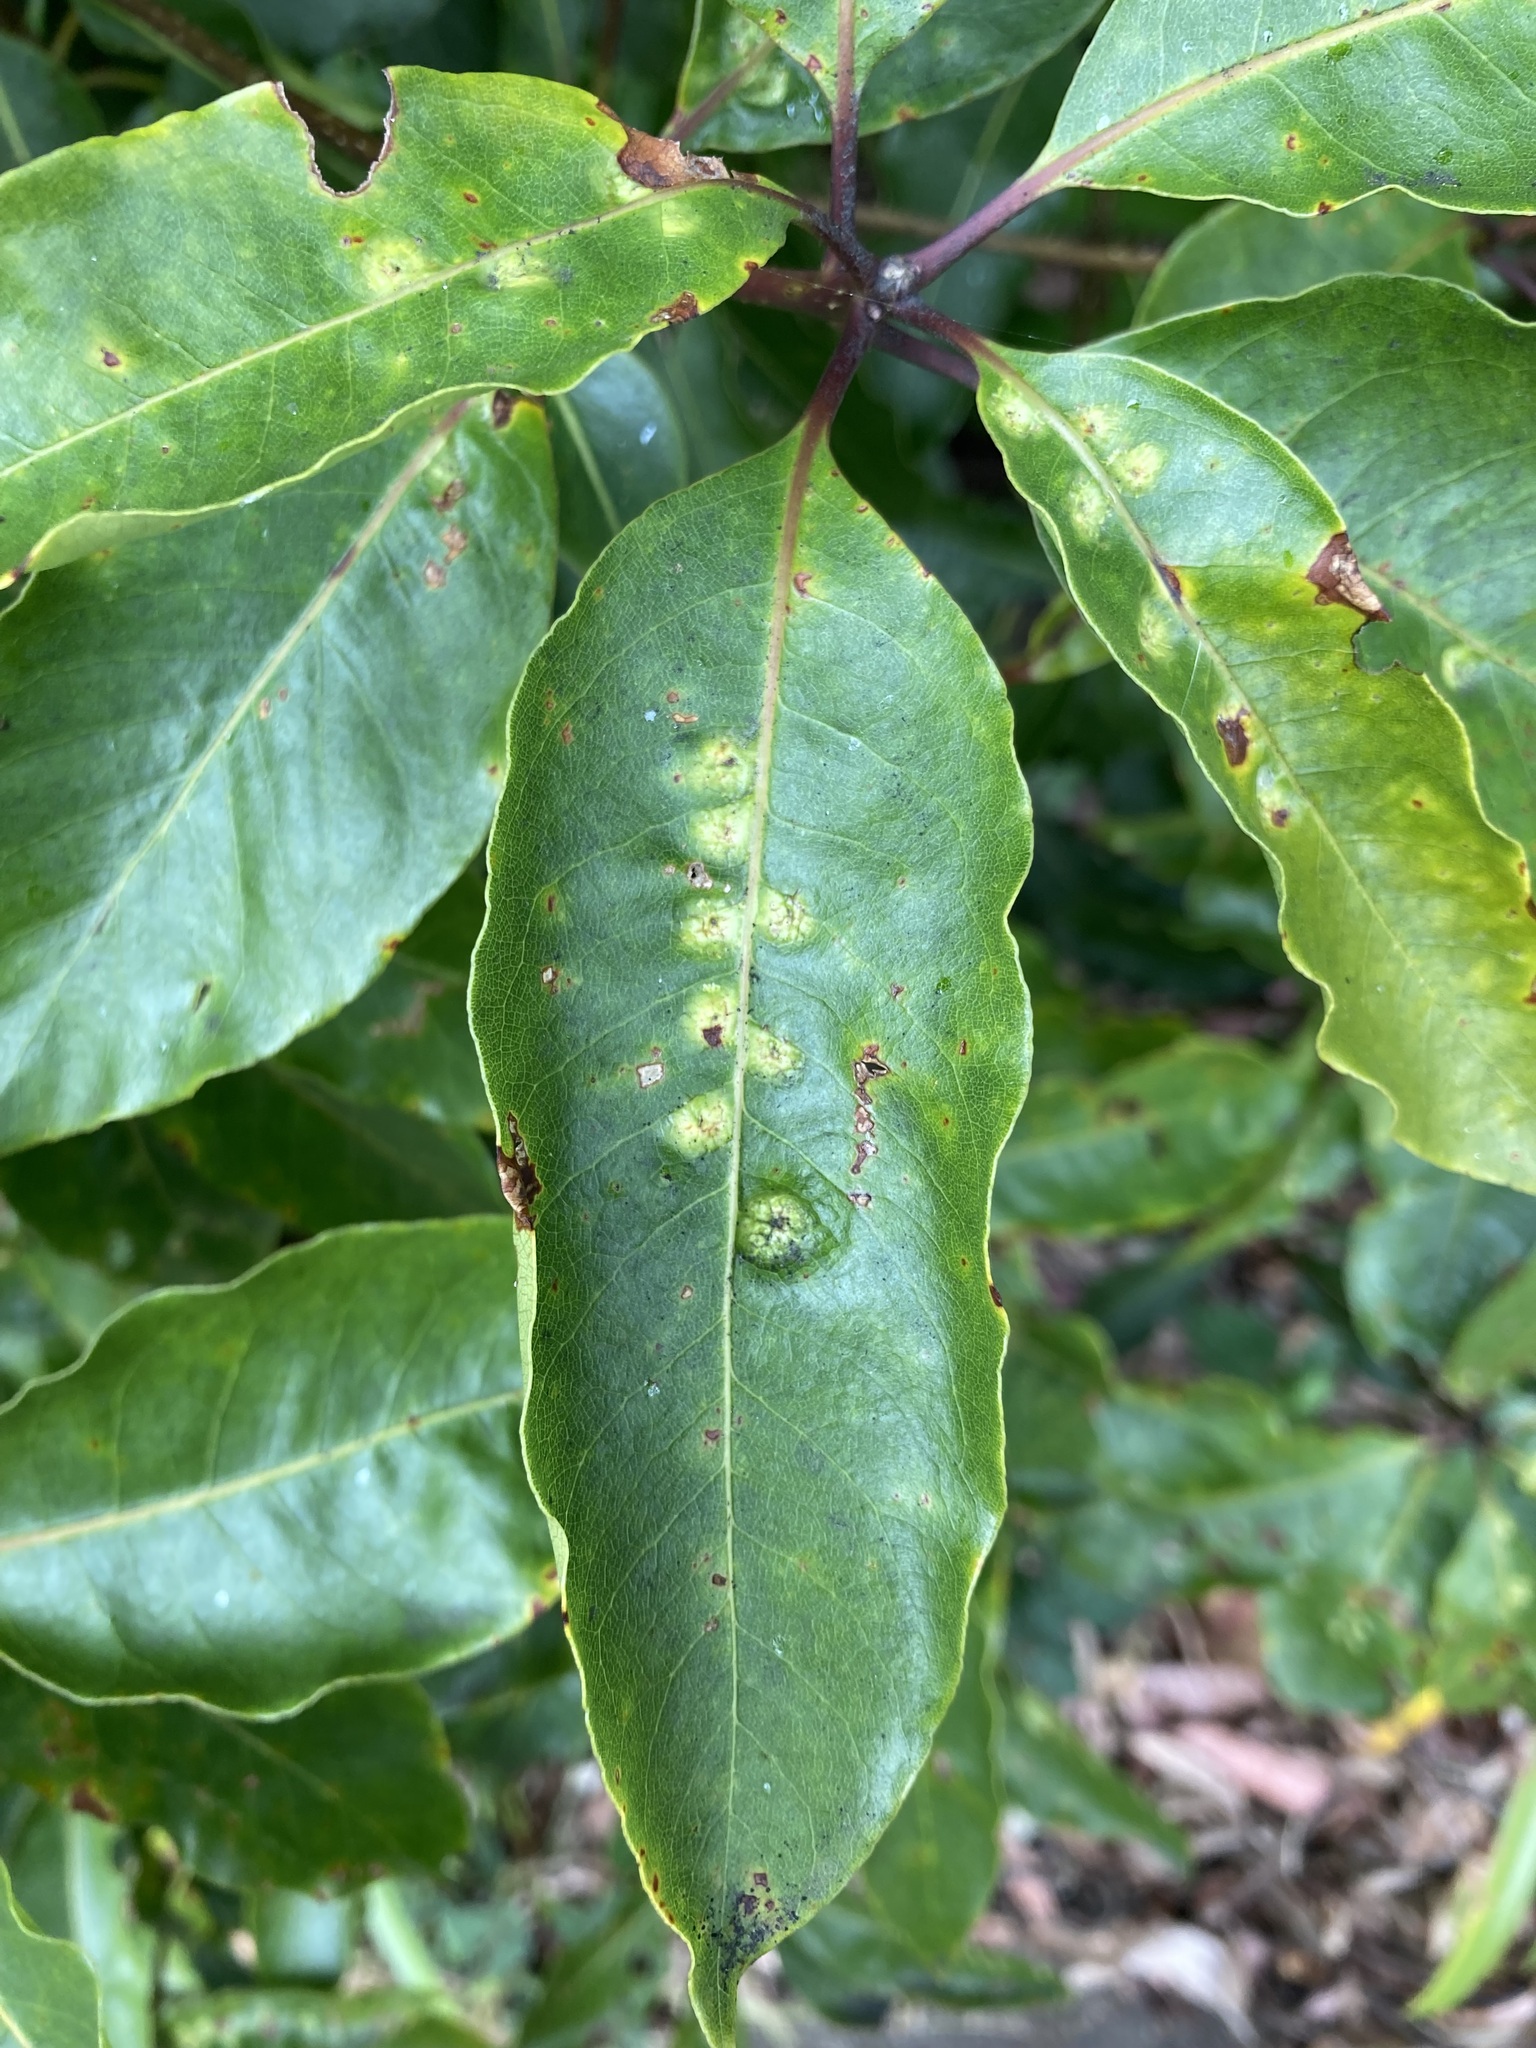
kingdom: Animalia
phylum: Arthropoda
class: Insecta
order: Diptera
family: Agromyzidae
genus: Phytoliriomyza
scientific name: Phytoliriomyza pittosporophylli
